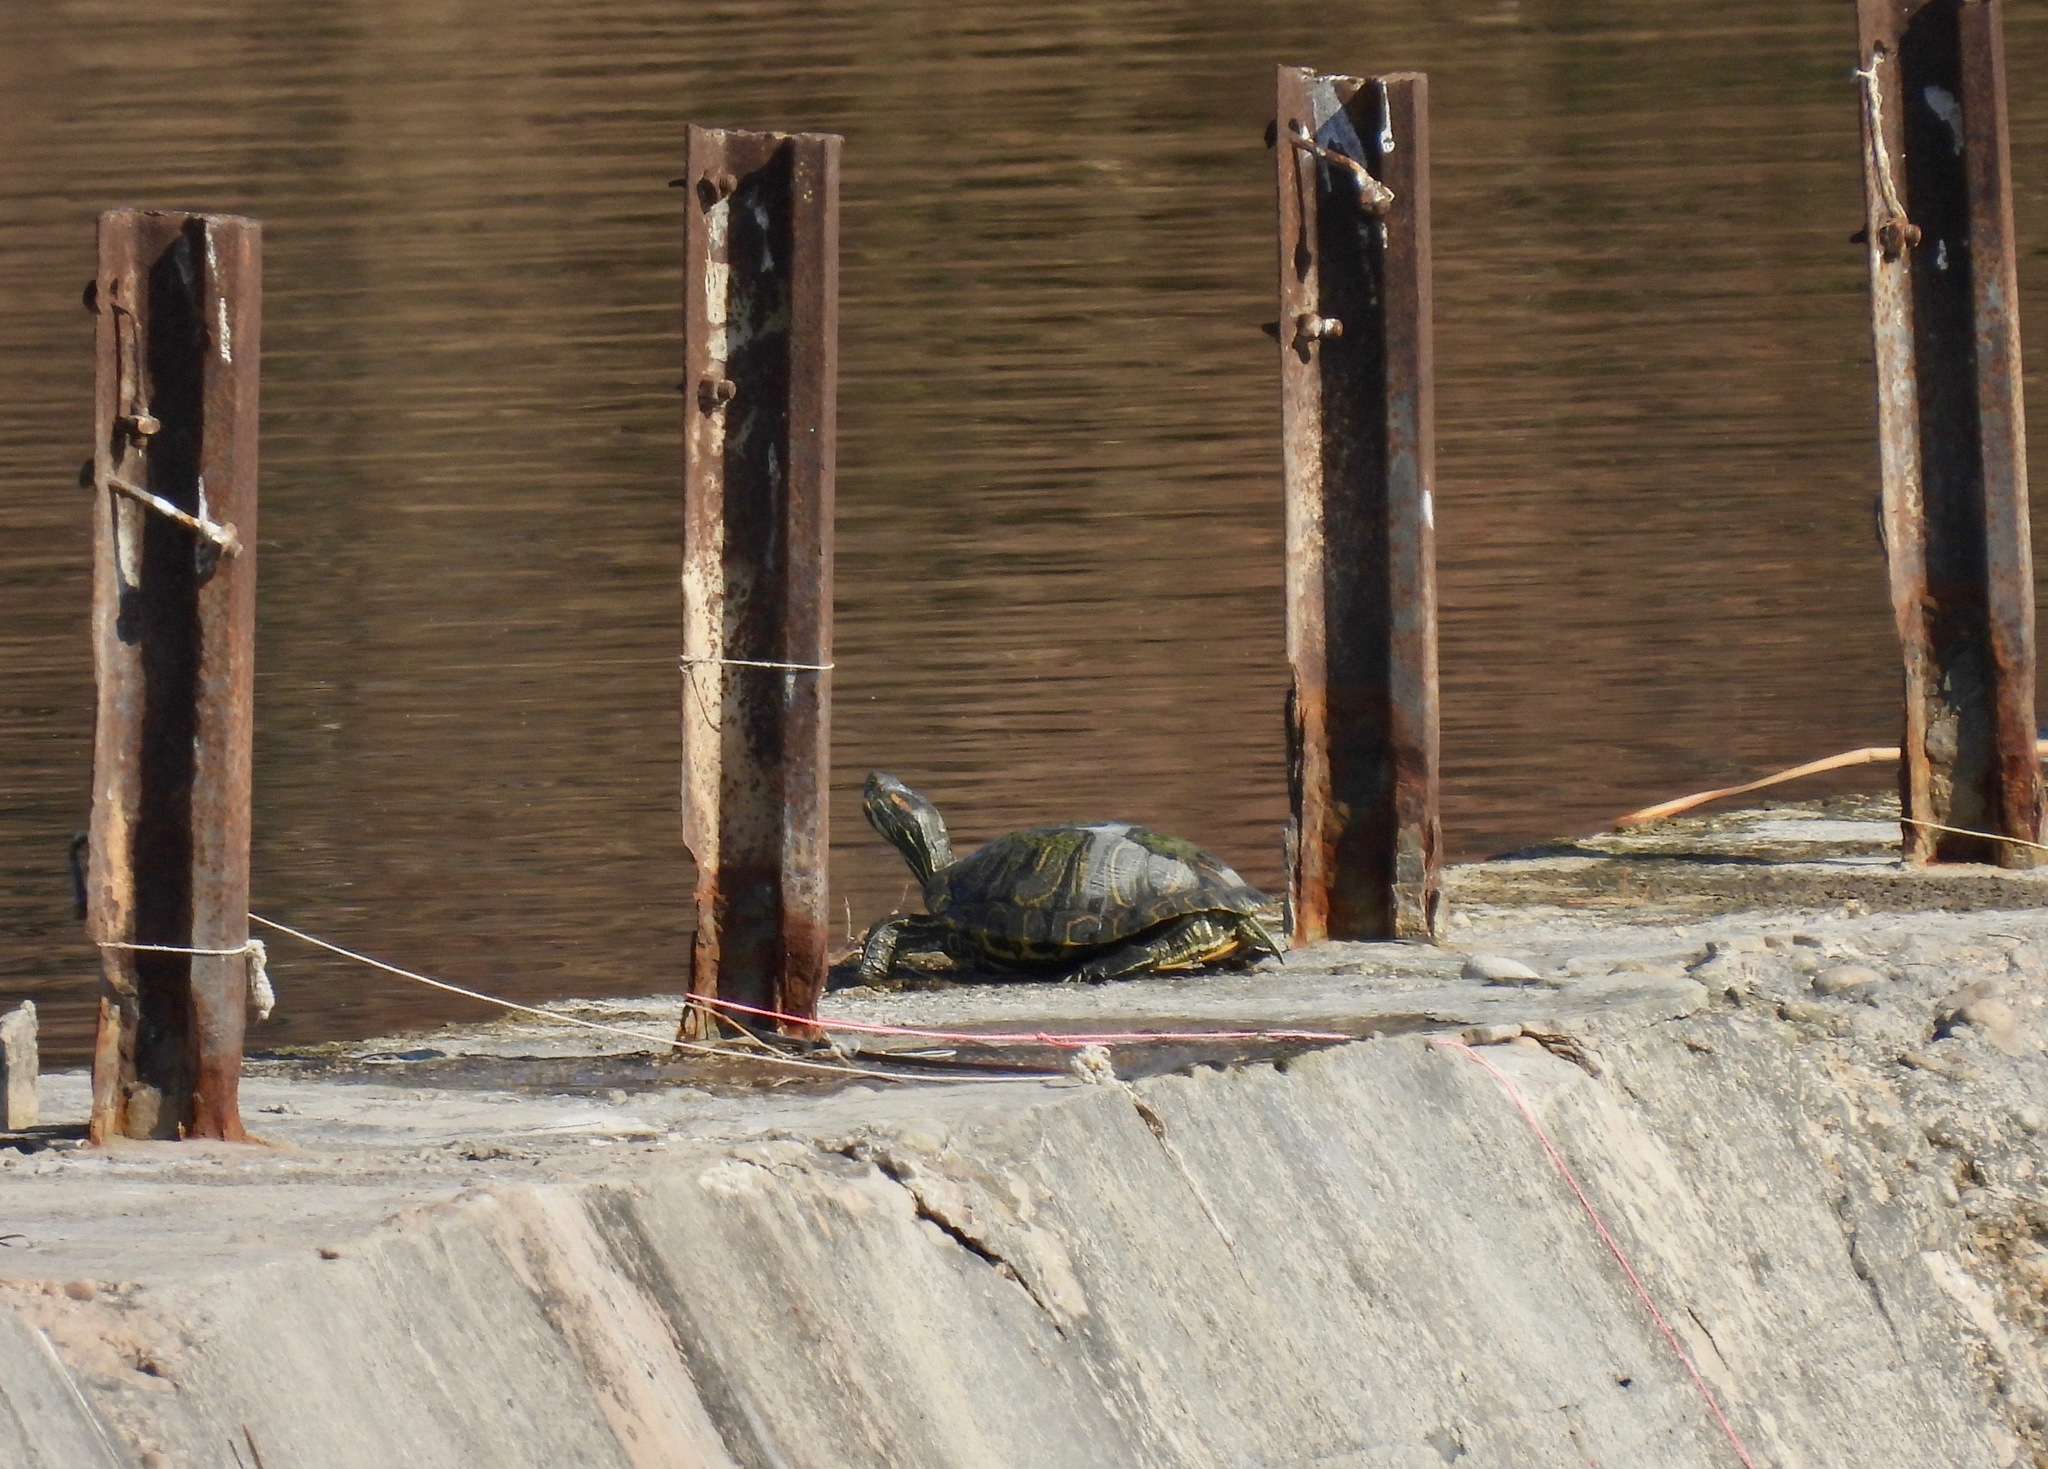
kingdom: Animalia
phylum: Chordata
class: Testudines
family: Emydidae
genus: Trachemys
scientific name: Trachemys scripta
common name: Slider
